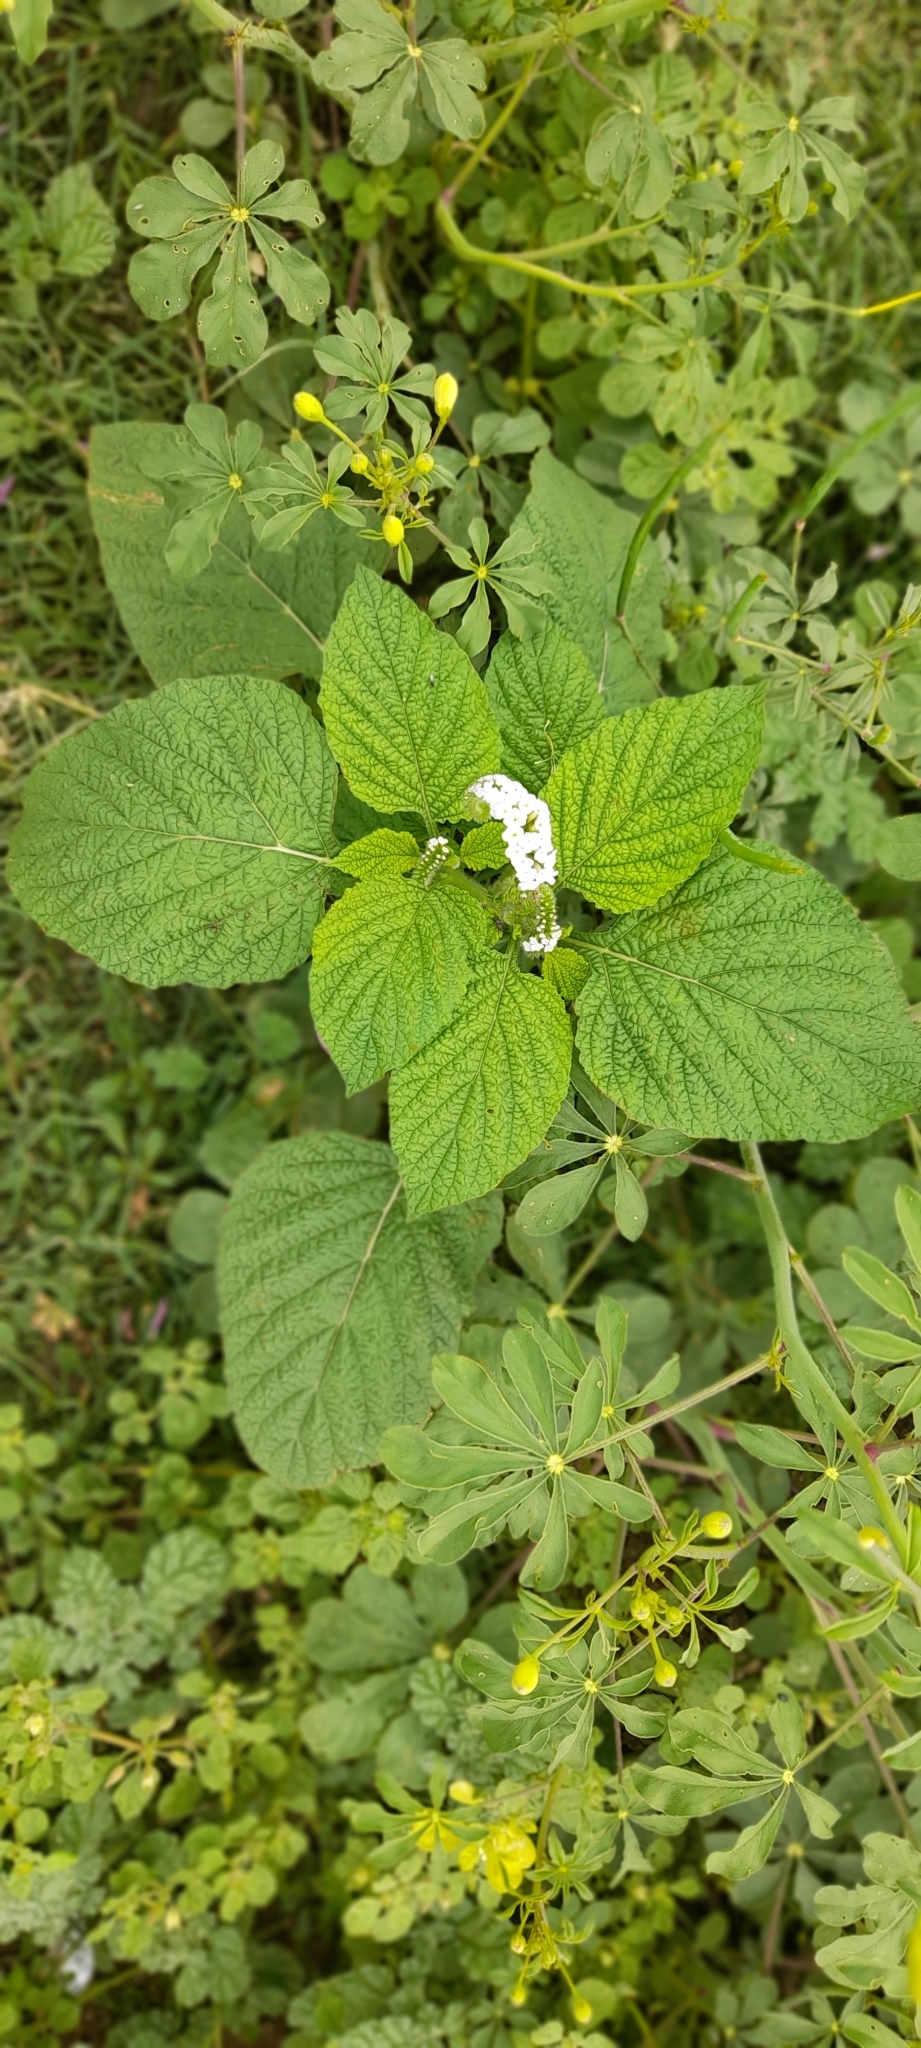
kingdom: Plantae
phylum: Tracheophyta
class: Magnoliopsida
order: Boraginales
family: Heliotropiaceae
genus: Heliotropium
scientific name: Heliotropium indicum
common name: Indian heliotrope
